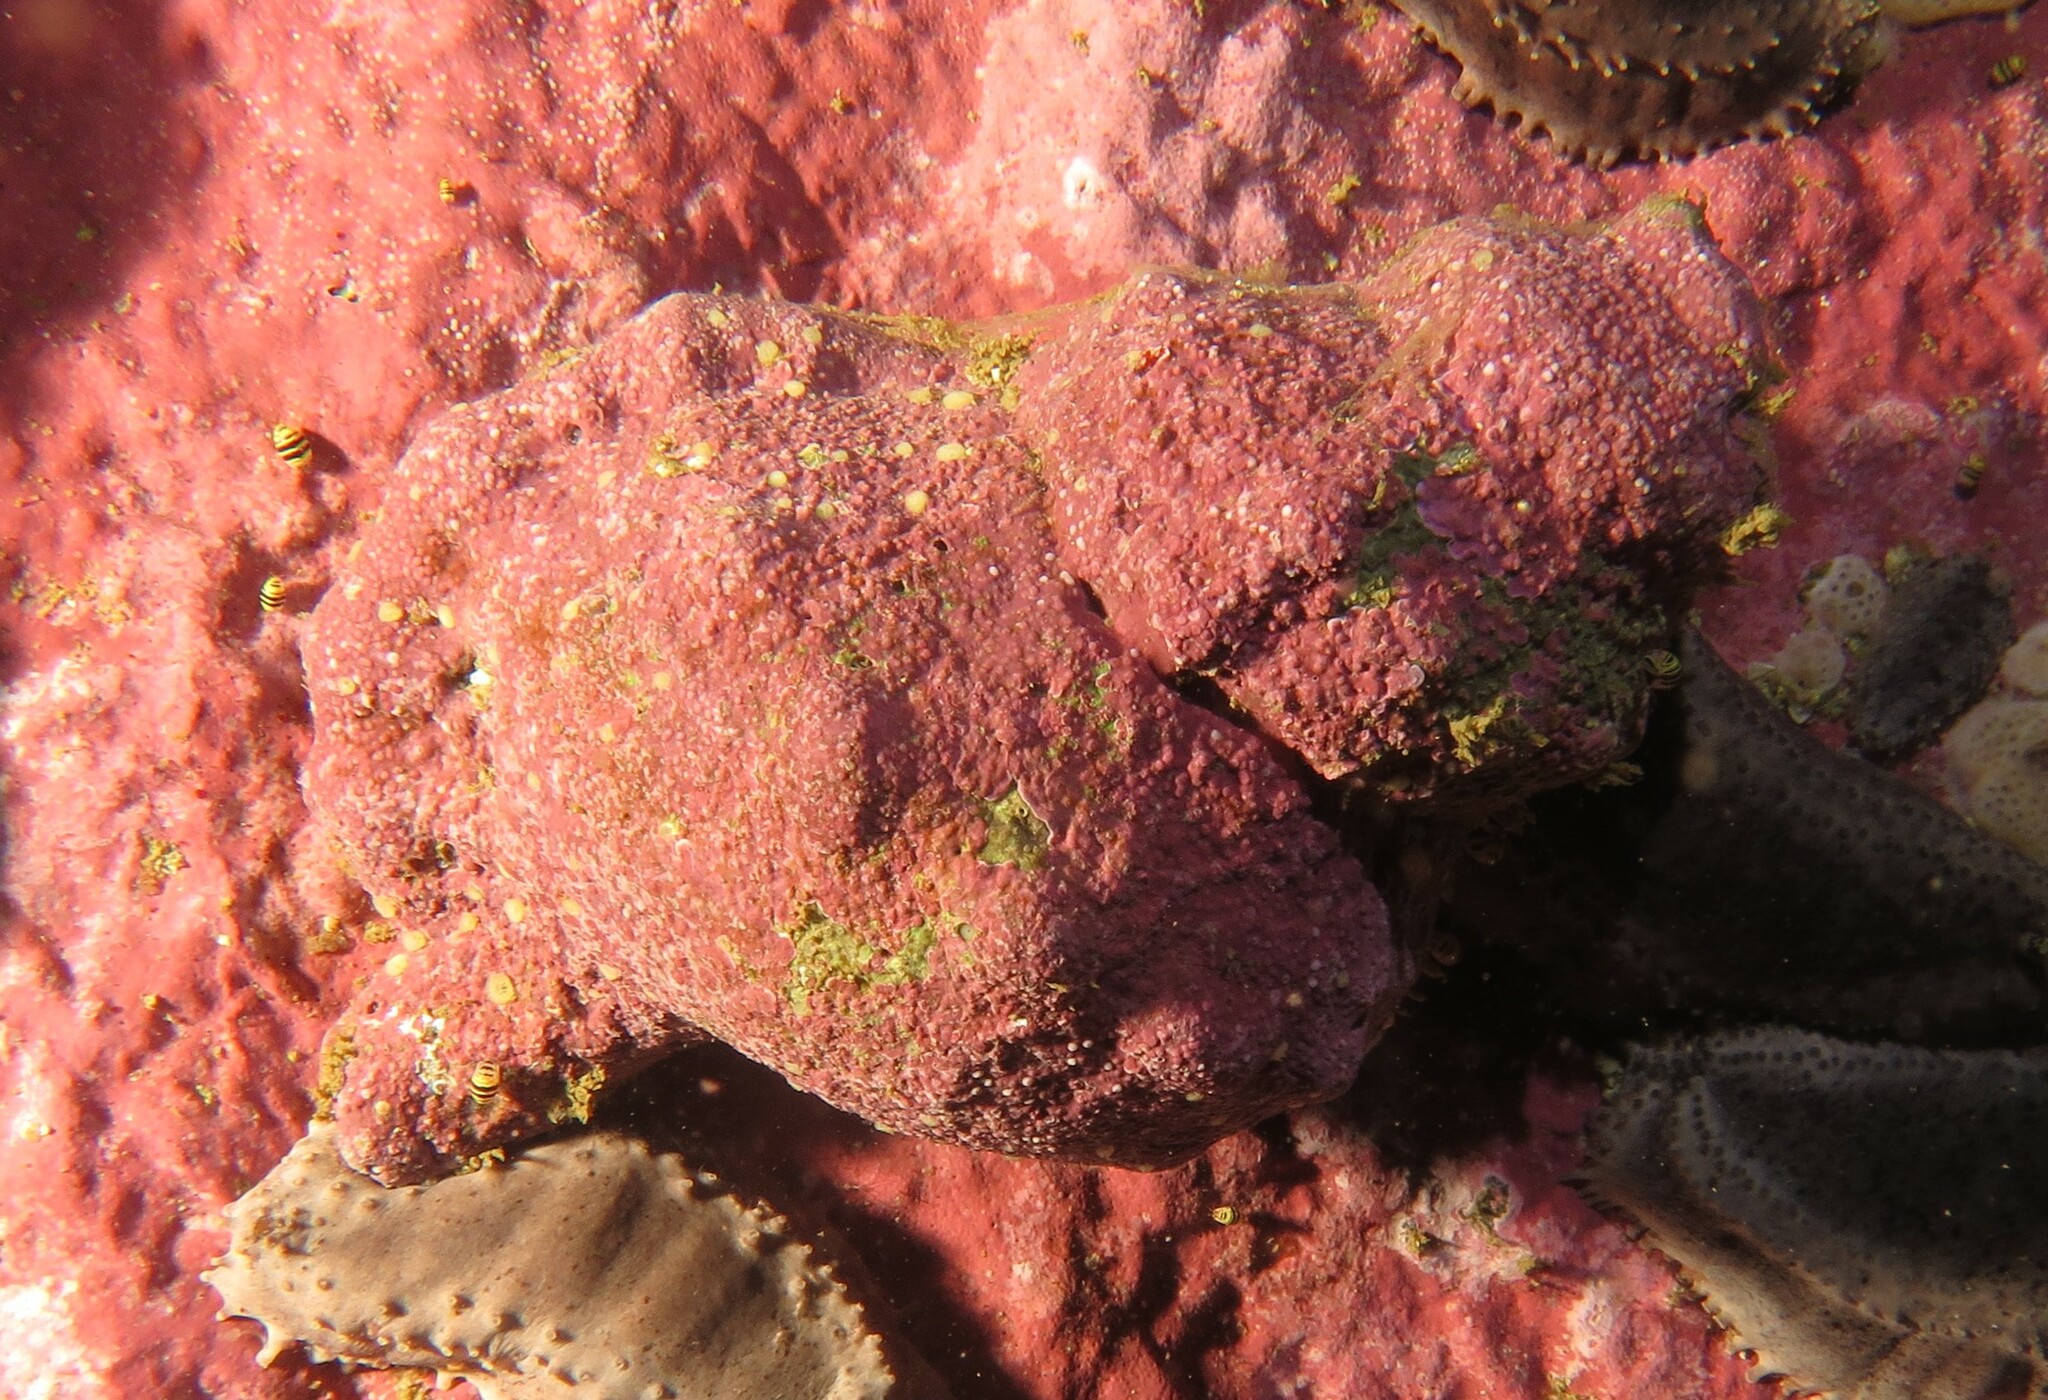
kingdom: Animalia
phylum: Mollusca
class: Gastropoda
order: Littorinimorpha
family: Cymatiidae
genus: Argobuccinum
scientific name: Argobuccinum pustulosum
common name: Pustular triton
